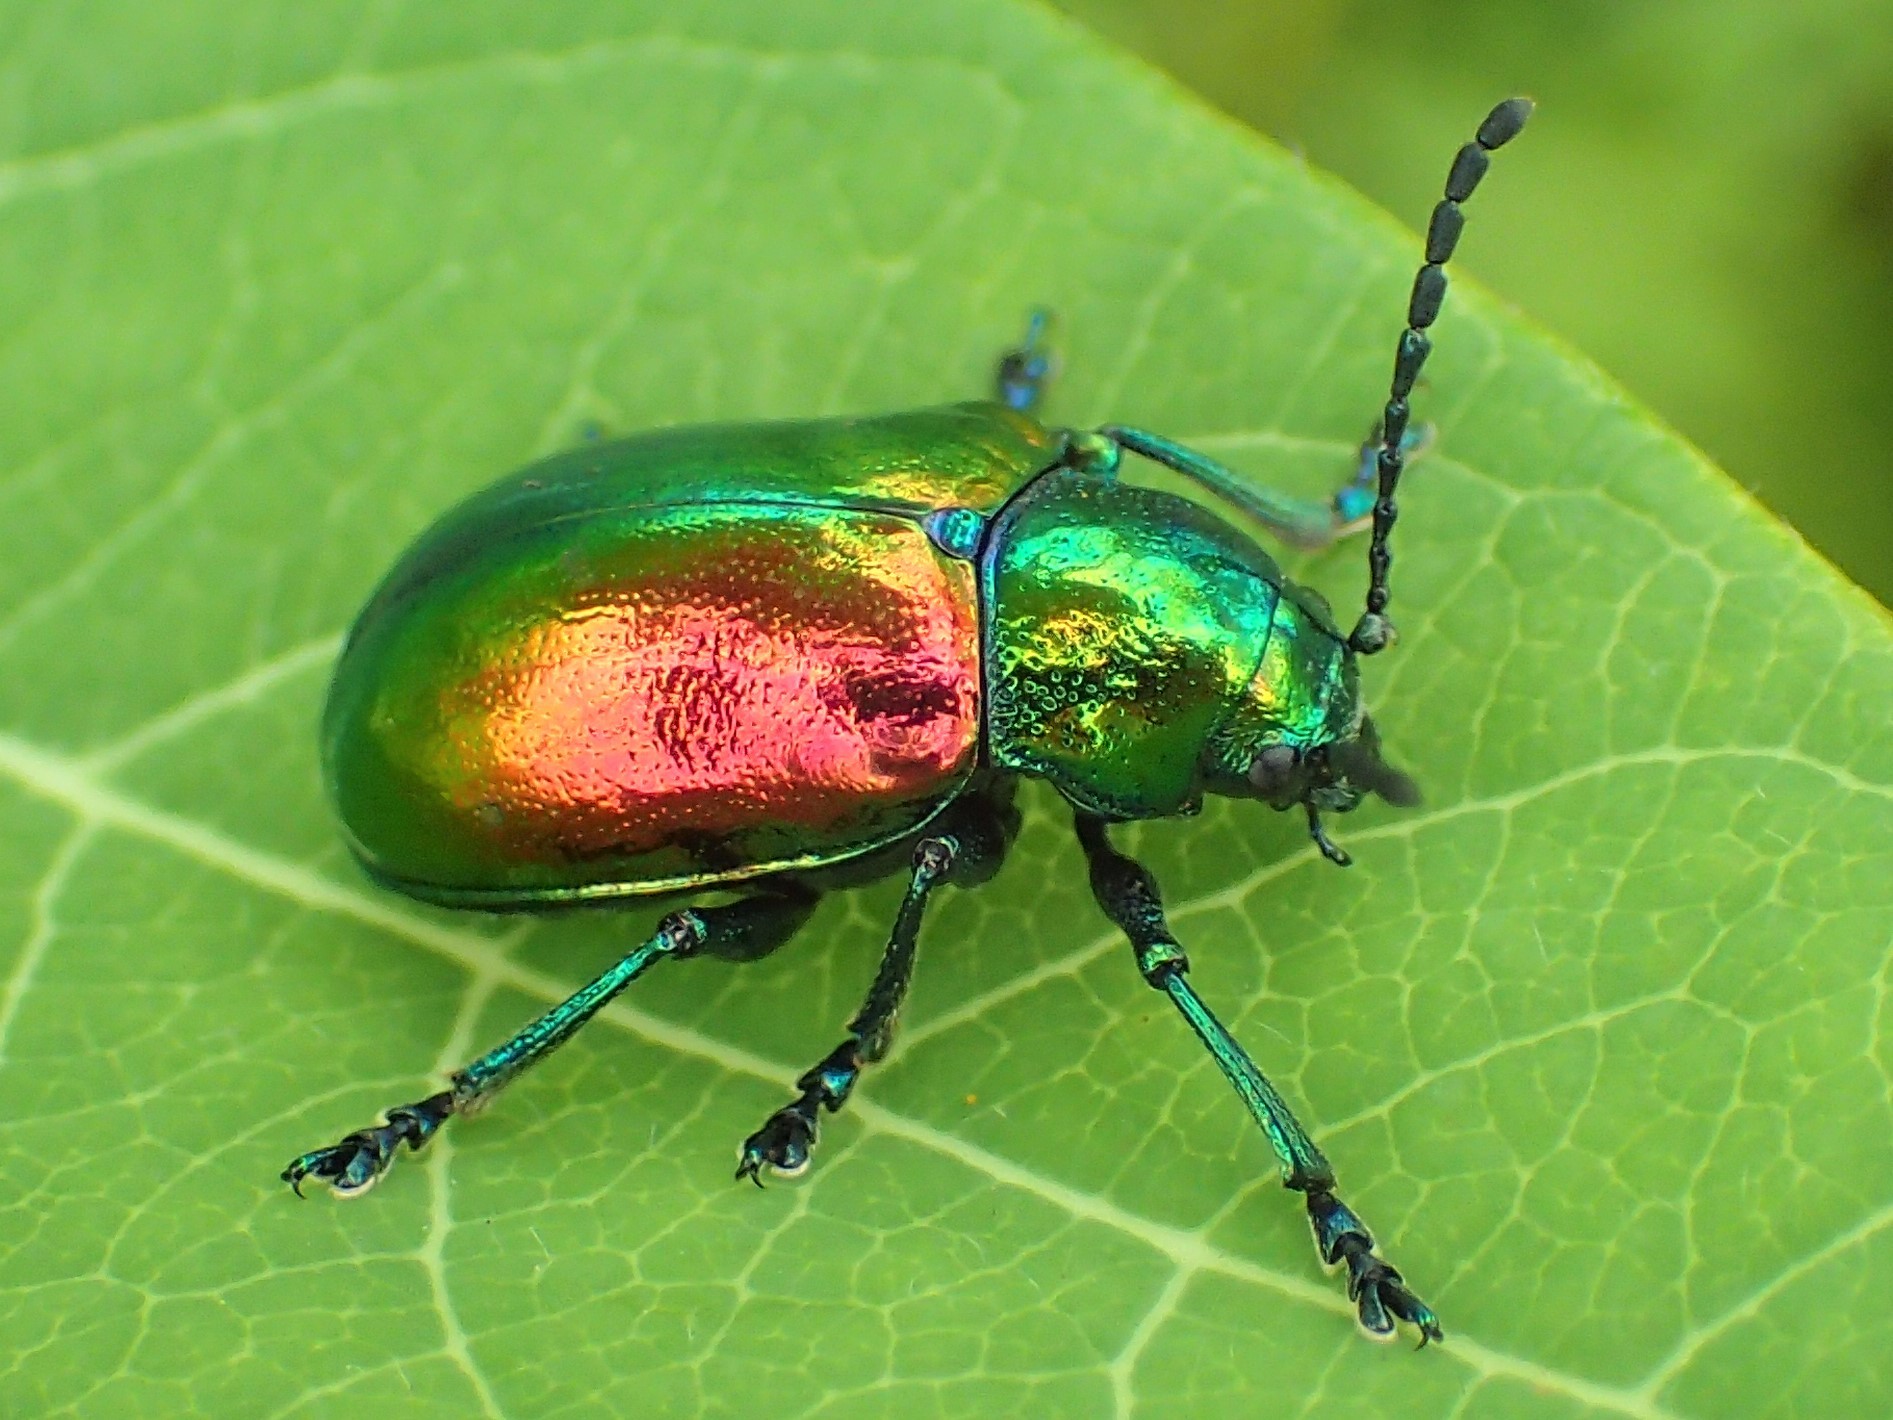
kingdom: Animalia
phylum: Arthropoda
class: Insecta
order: Coleoptera
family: Chrysomelidae
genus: Chrysochus
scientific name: Chrysochus auratus
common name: Dogbane leaf beetle
